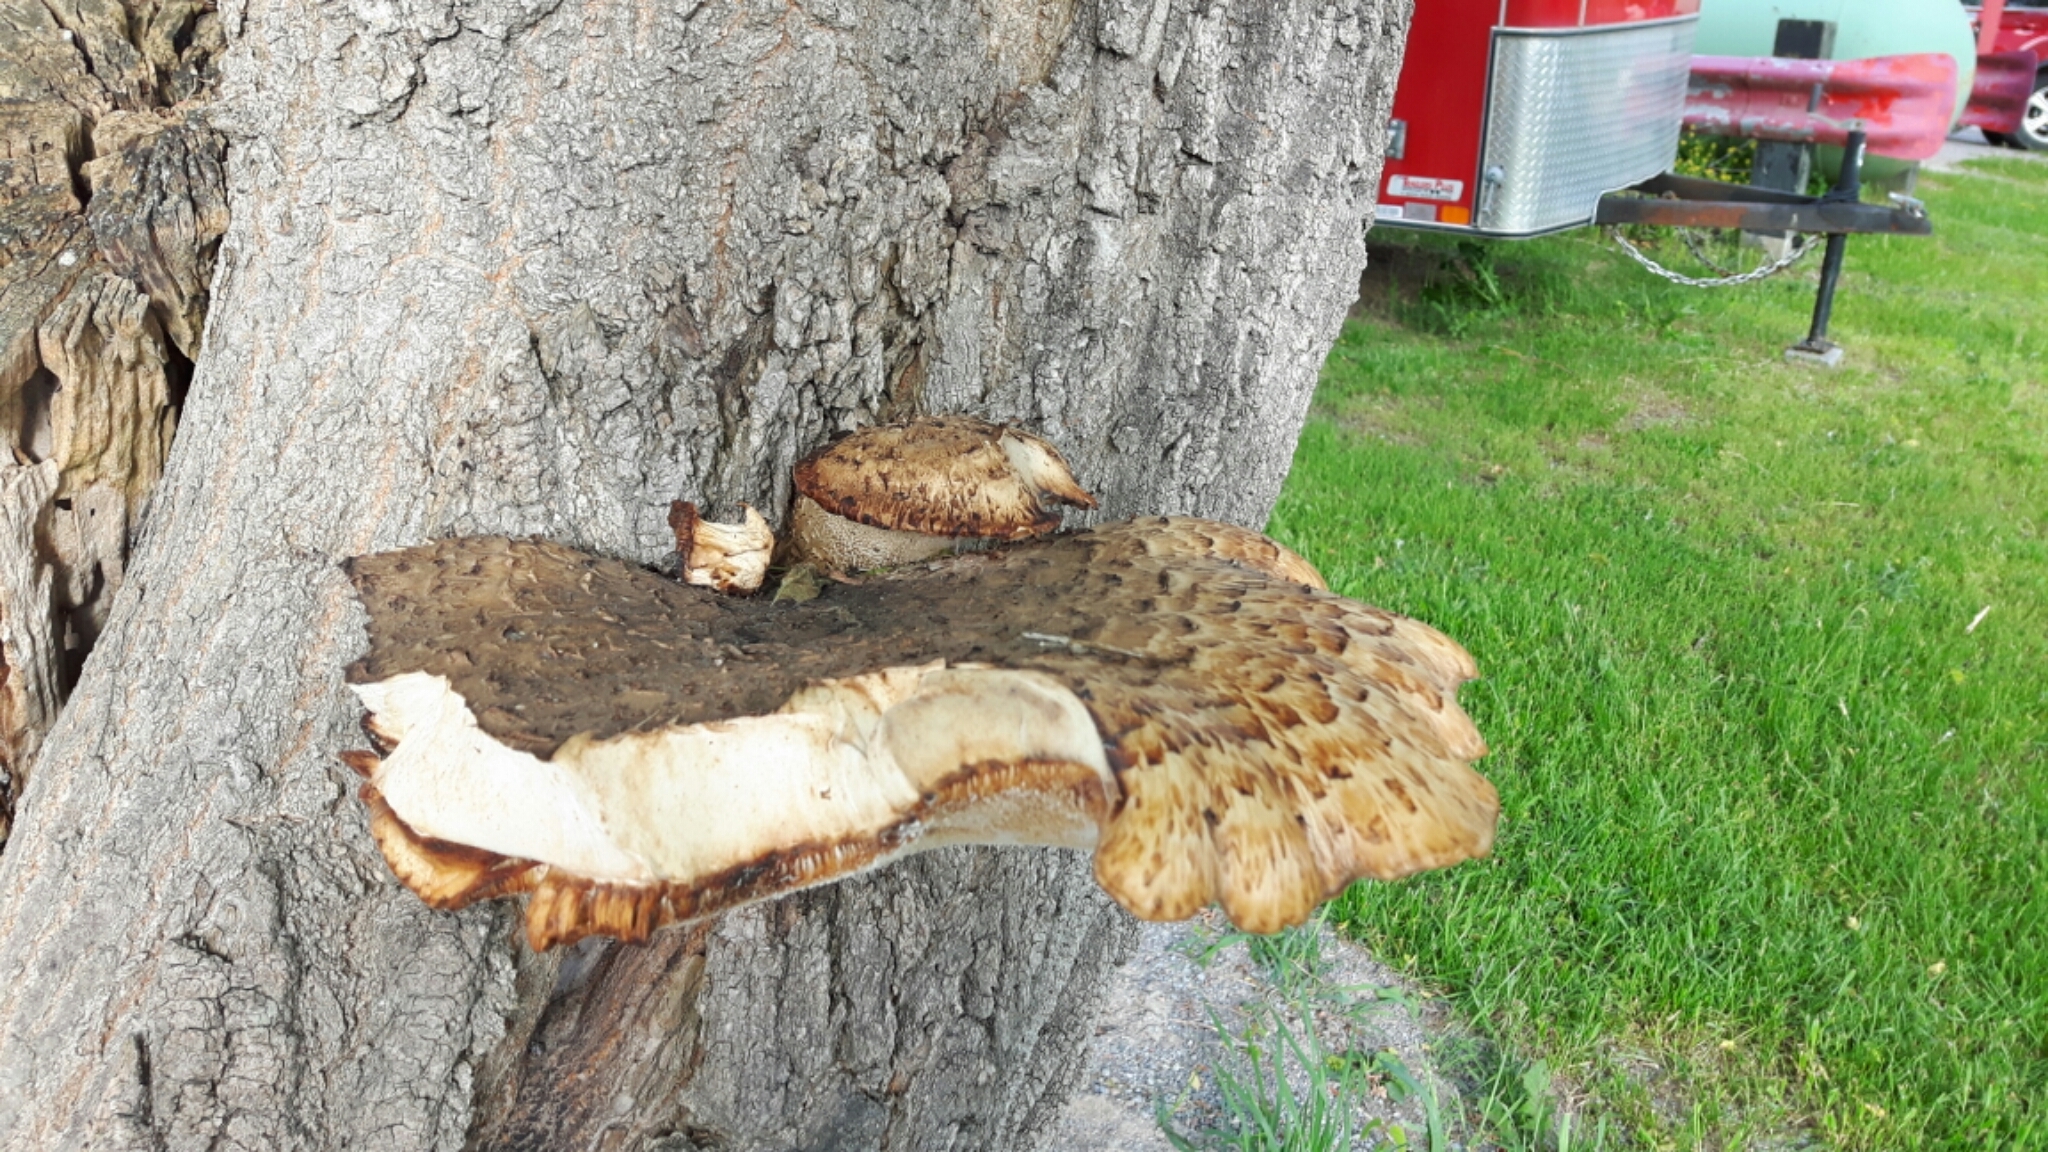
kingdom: Fungi
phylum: Basidiomycota
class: Agaricomycetes
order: Polyporales
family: Polyporaceae
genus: Cerioporus
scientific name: Cerioporus squamosus
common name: Dryad's saddle
